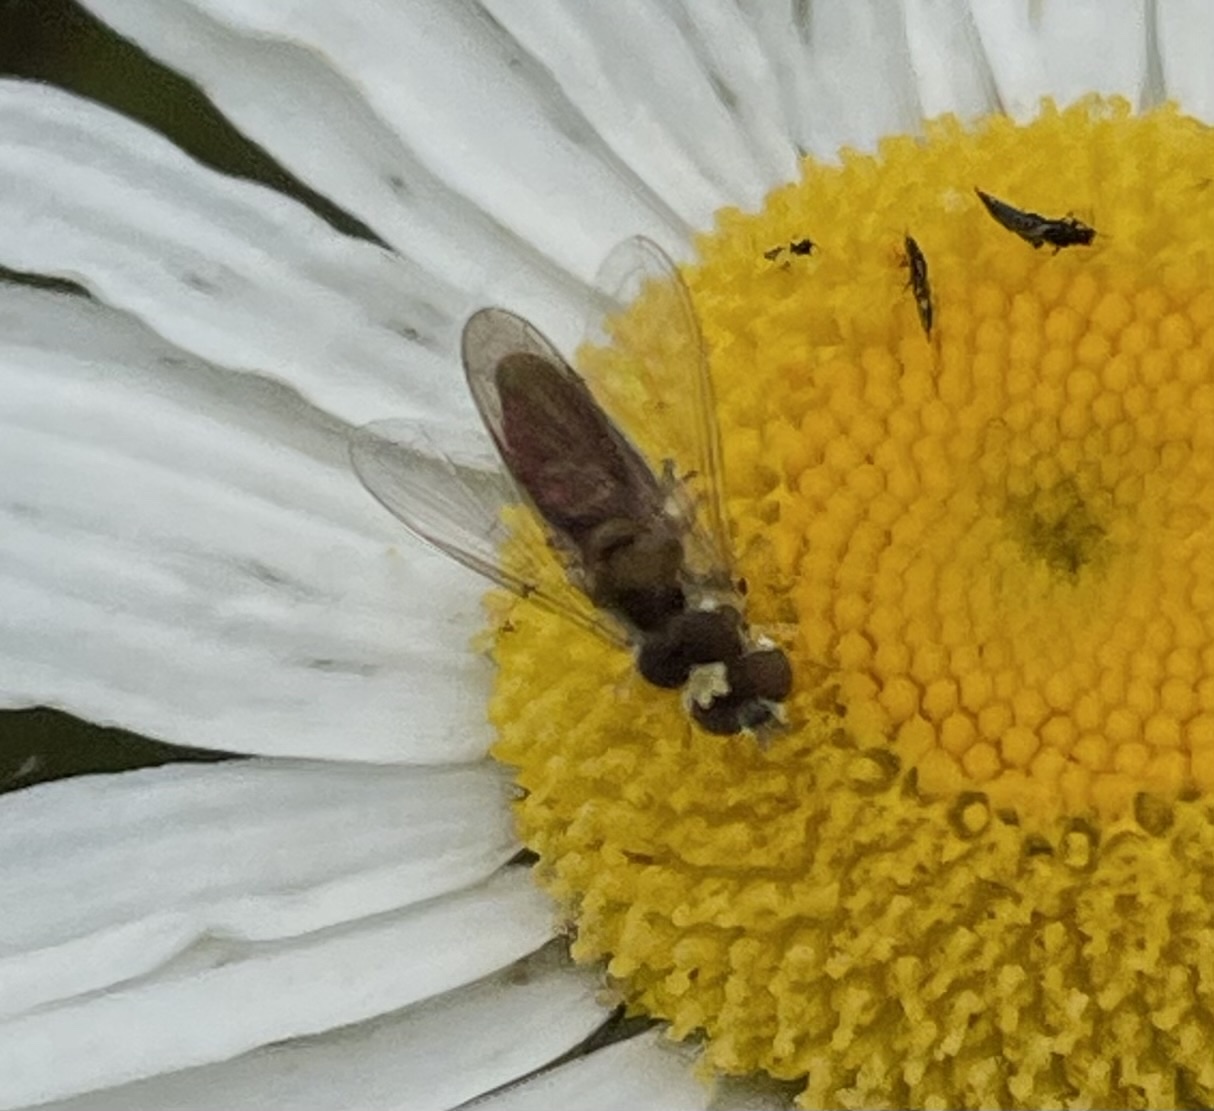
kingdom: Animalia
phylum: Arthropoda
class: Insecta
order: Diptera
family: Syrphidae
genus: Toxomerus
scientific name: Toxomerus
